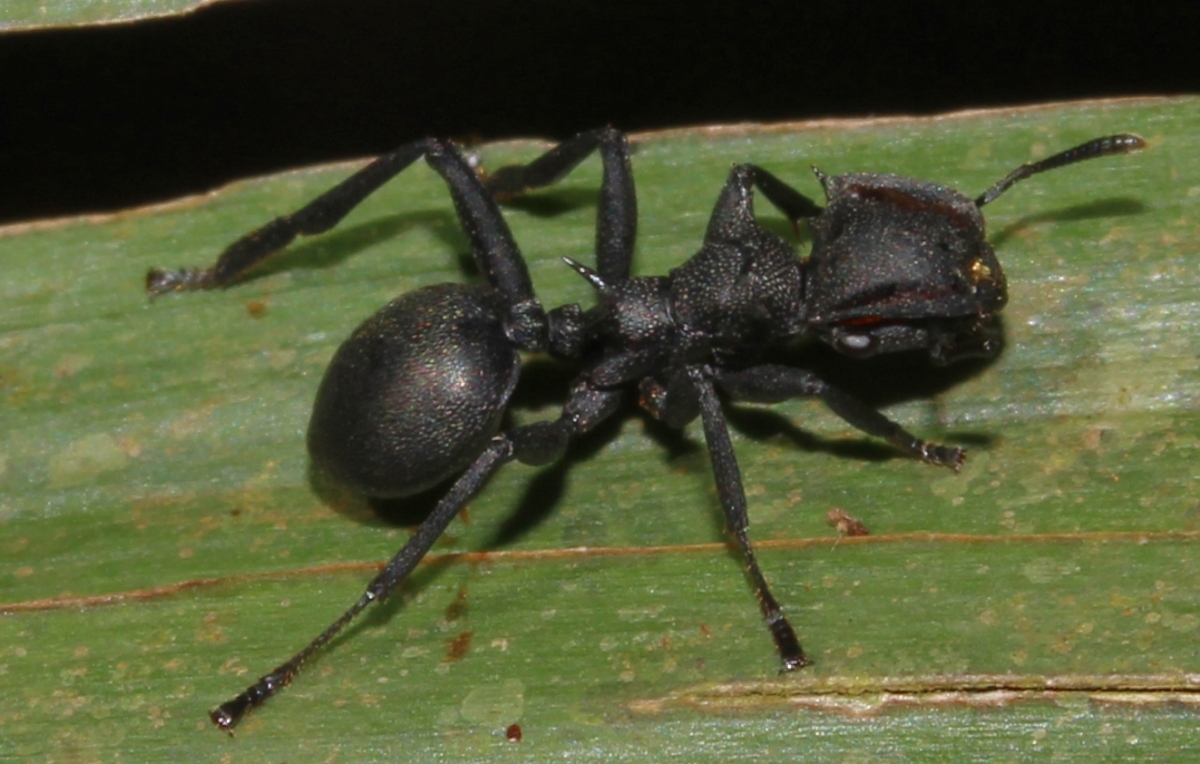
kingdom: Animalia
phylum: Arthropoda
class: Insecta
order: Hymenoptera
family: Formicidae
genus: Cephalotes
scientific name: Cephalotes atratus
